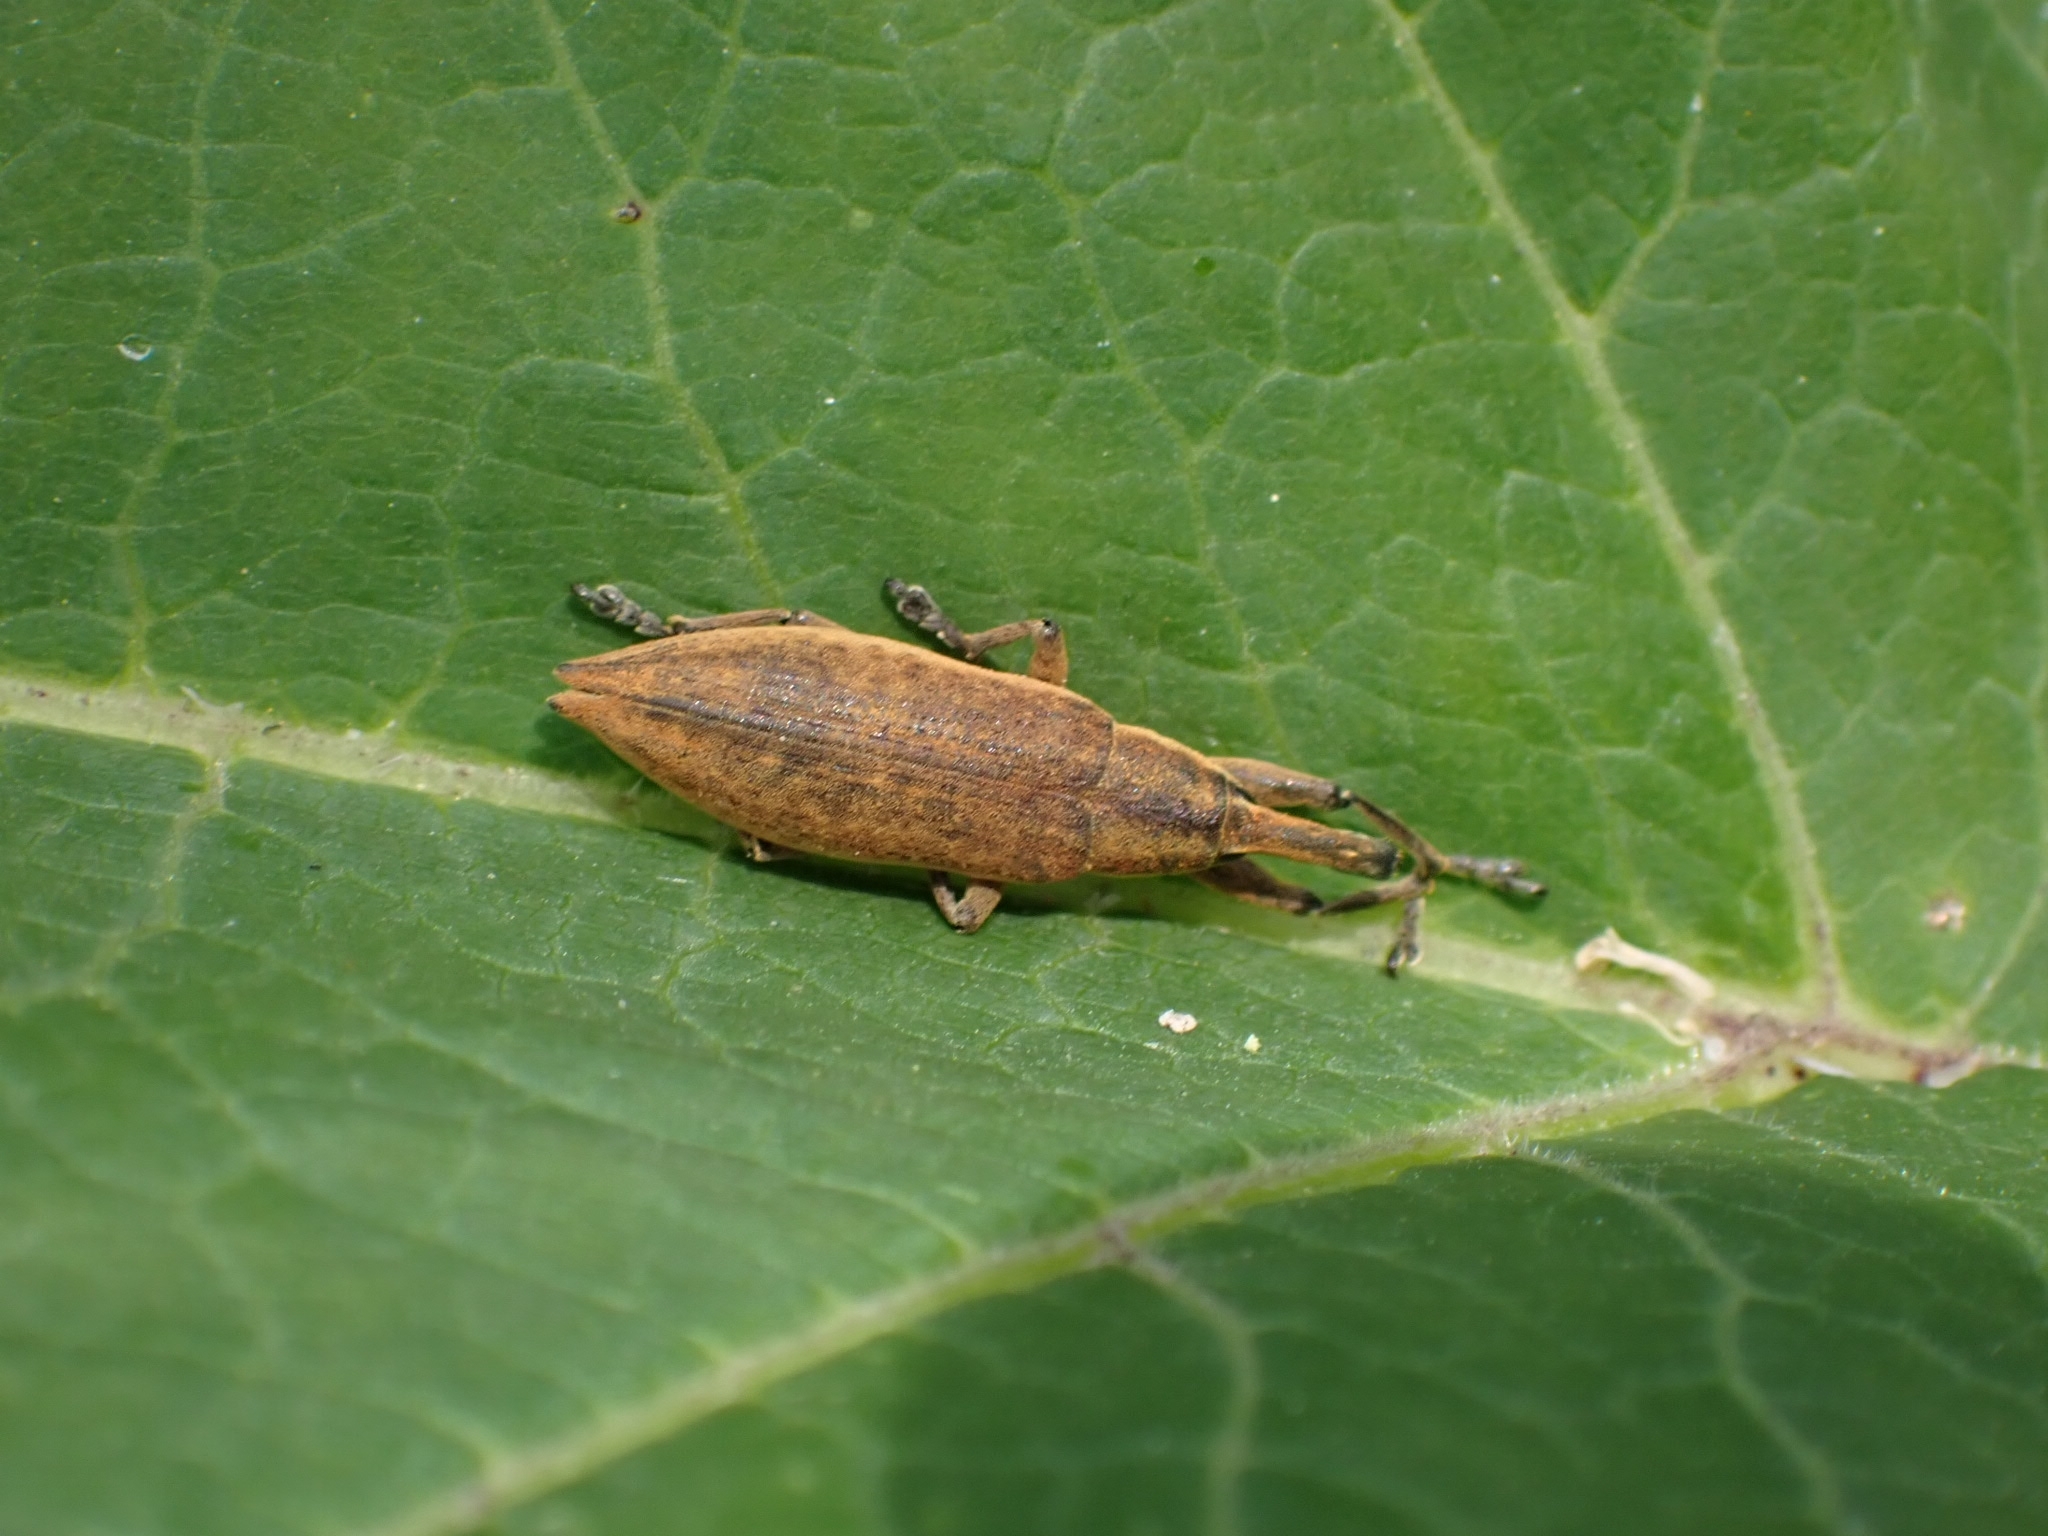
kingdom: Animalia
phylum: Arthropoda
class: Insecta
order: Coleoptera
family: Curculionidae
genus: Lixus
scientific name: Lixus iridis
